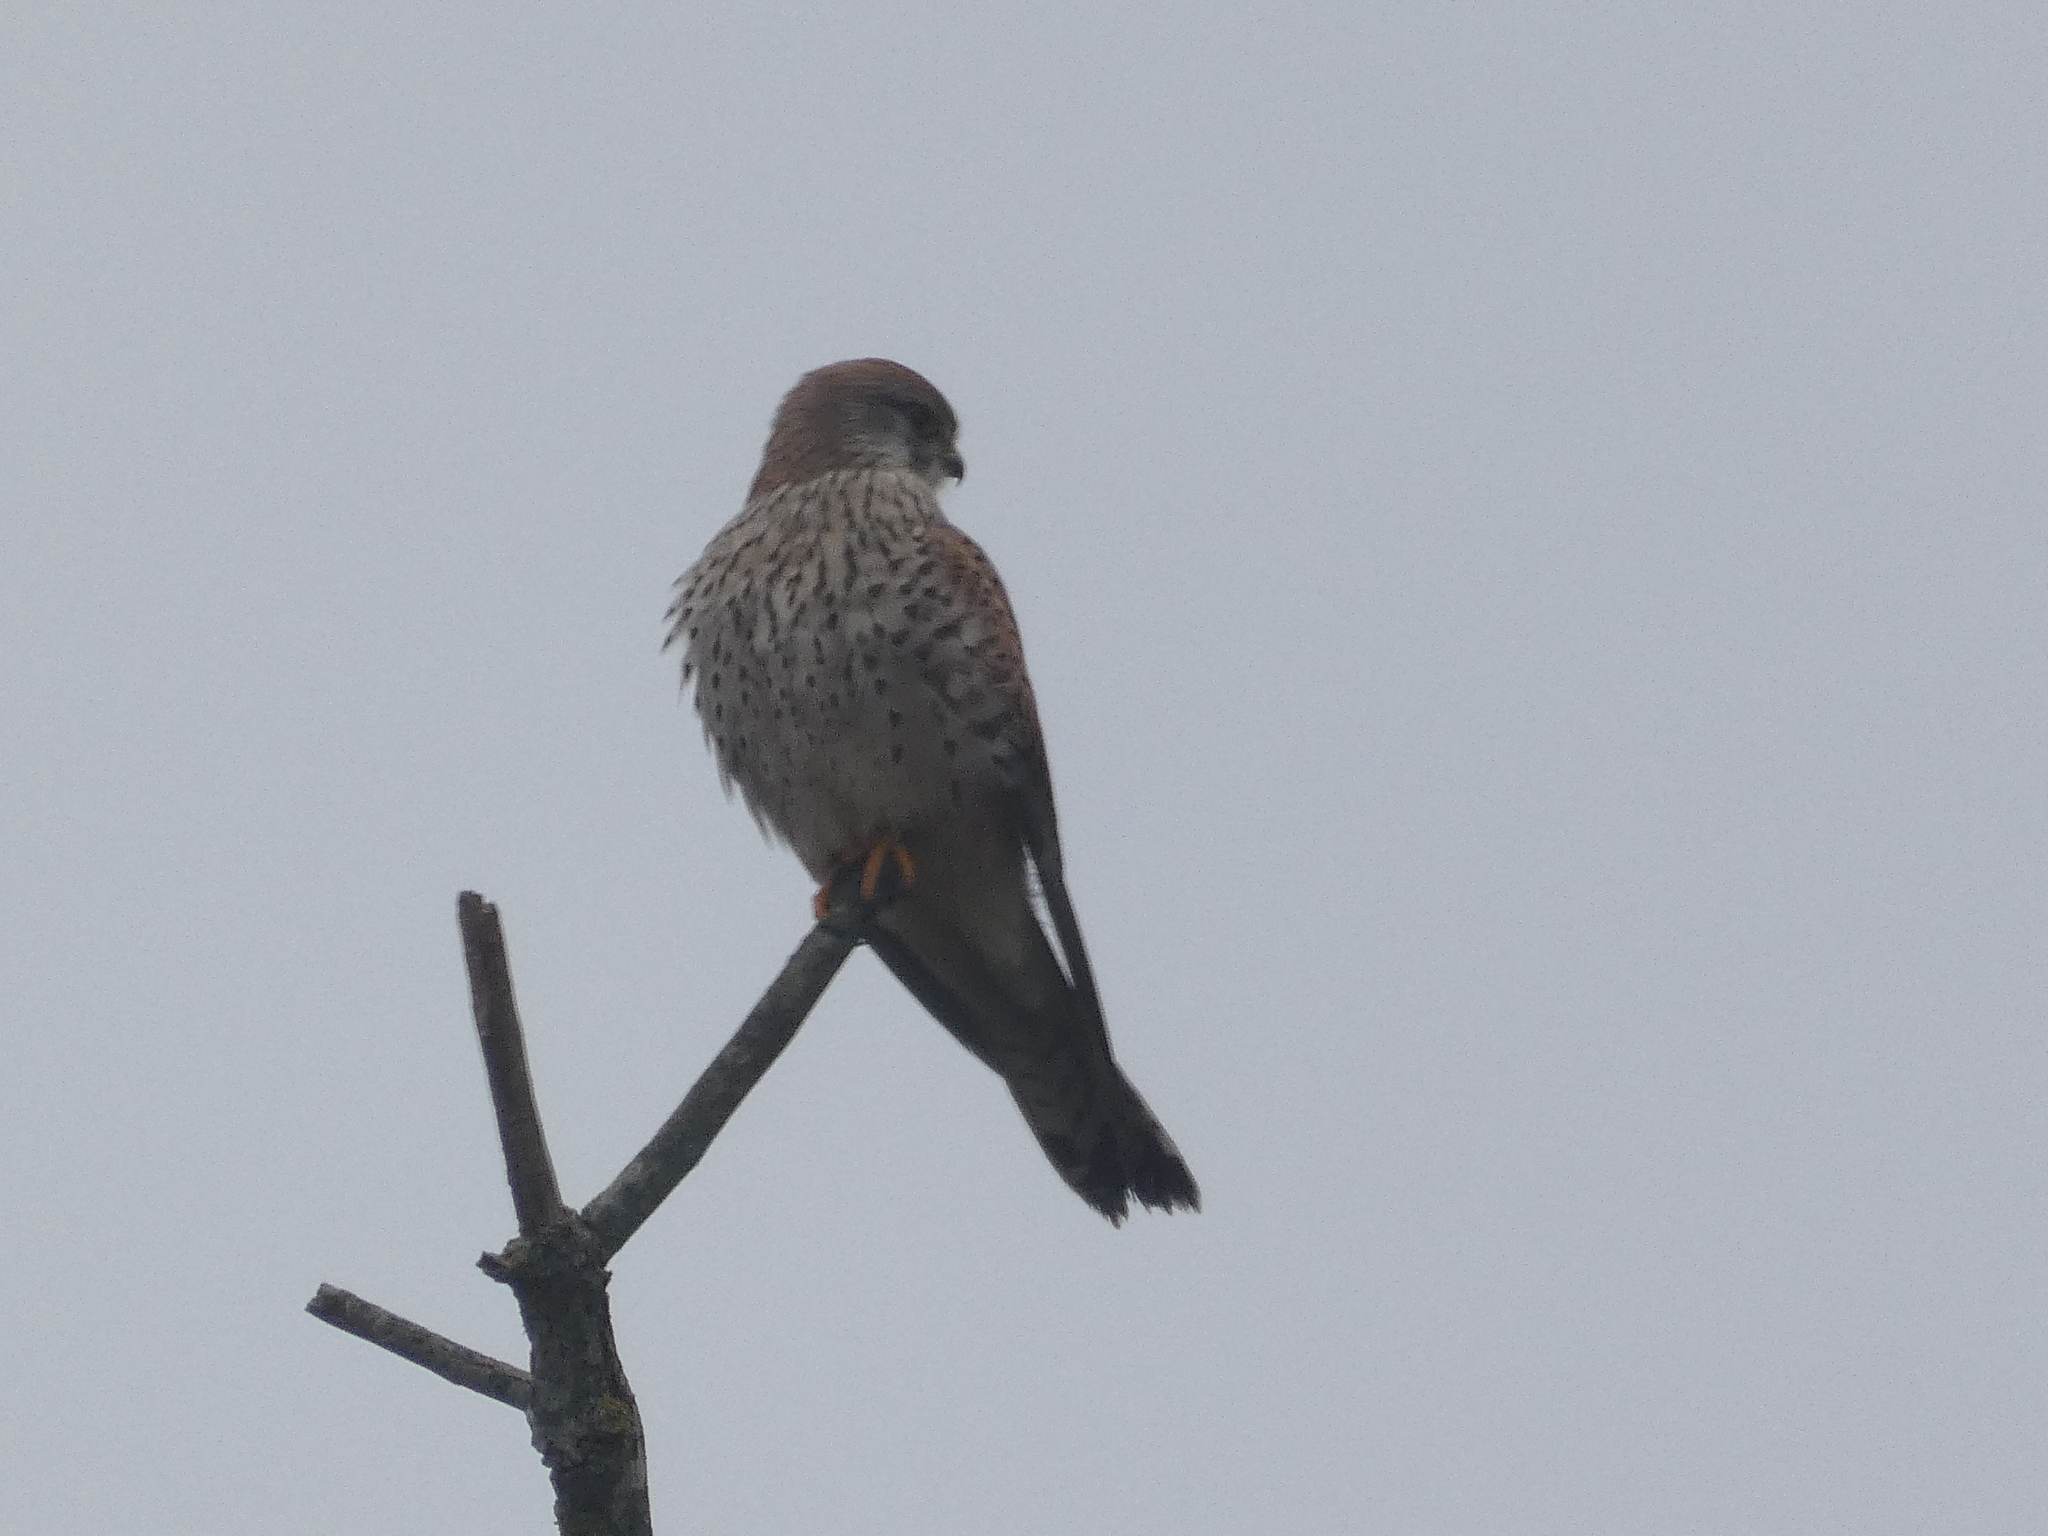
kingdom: Animalia
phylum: Chordata
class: Aves
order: Falconiformes
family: Falconidae
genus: Falco
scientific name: Falco tinnunculus
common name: Common kestrel
